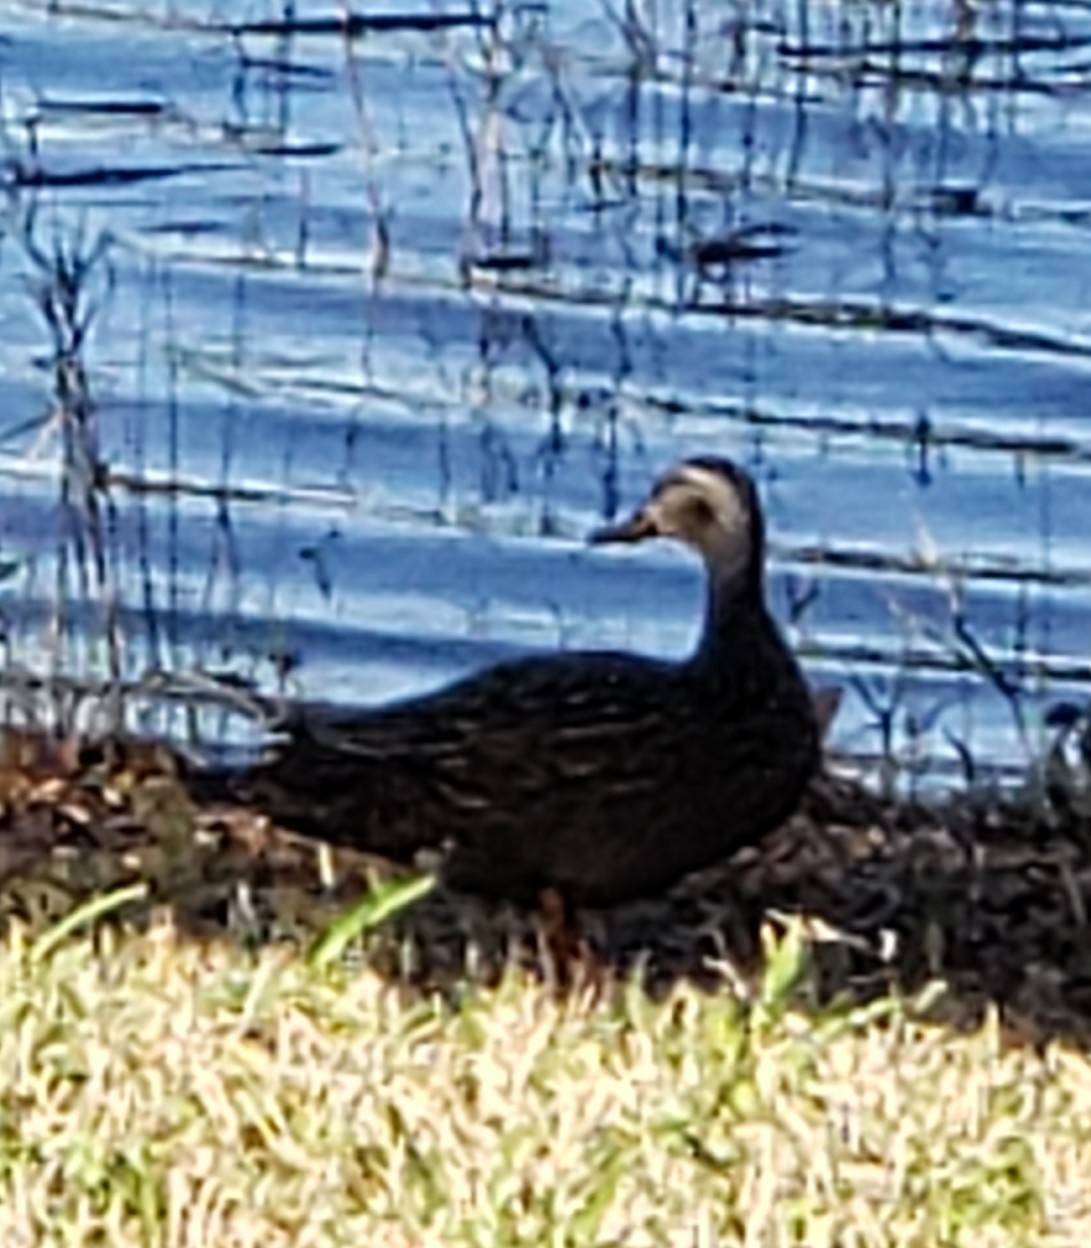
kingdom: Animalia
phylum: Chordata
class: Aves
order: Anseriformes
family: Anatidae
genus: Anas
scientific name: Anas
